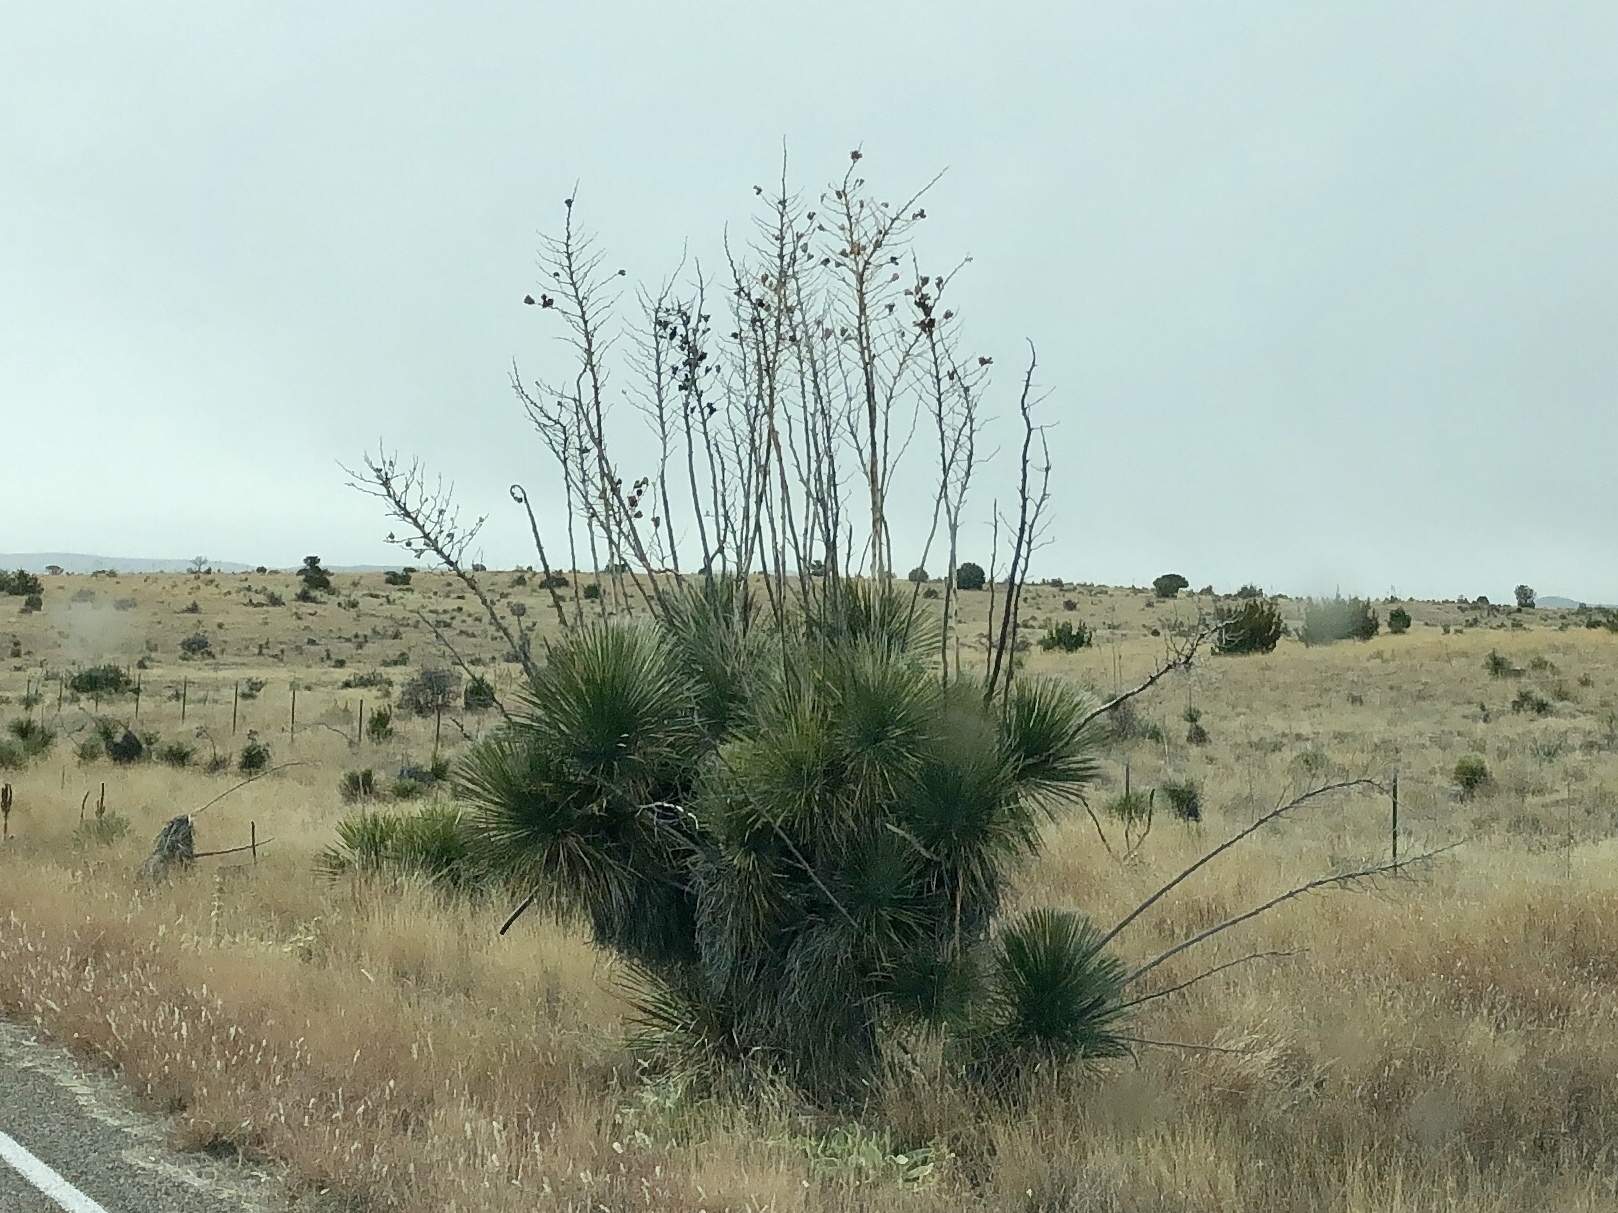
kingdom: Plantae
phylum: Tracheophyta
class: Liliopsida
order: Asparagales
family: Asparagaceae
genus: Yucca
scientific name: Yucca elata
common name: Palmella
